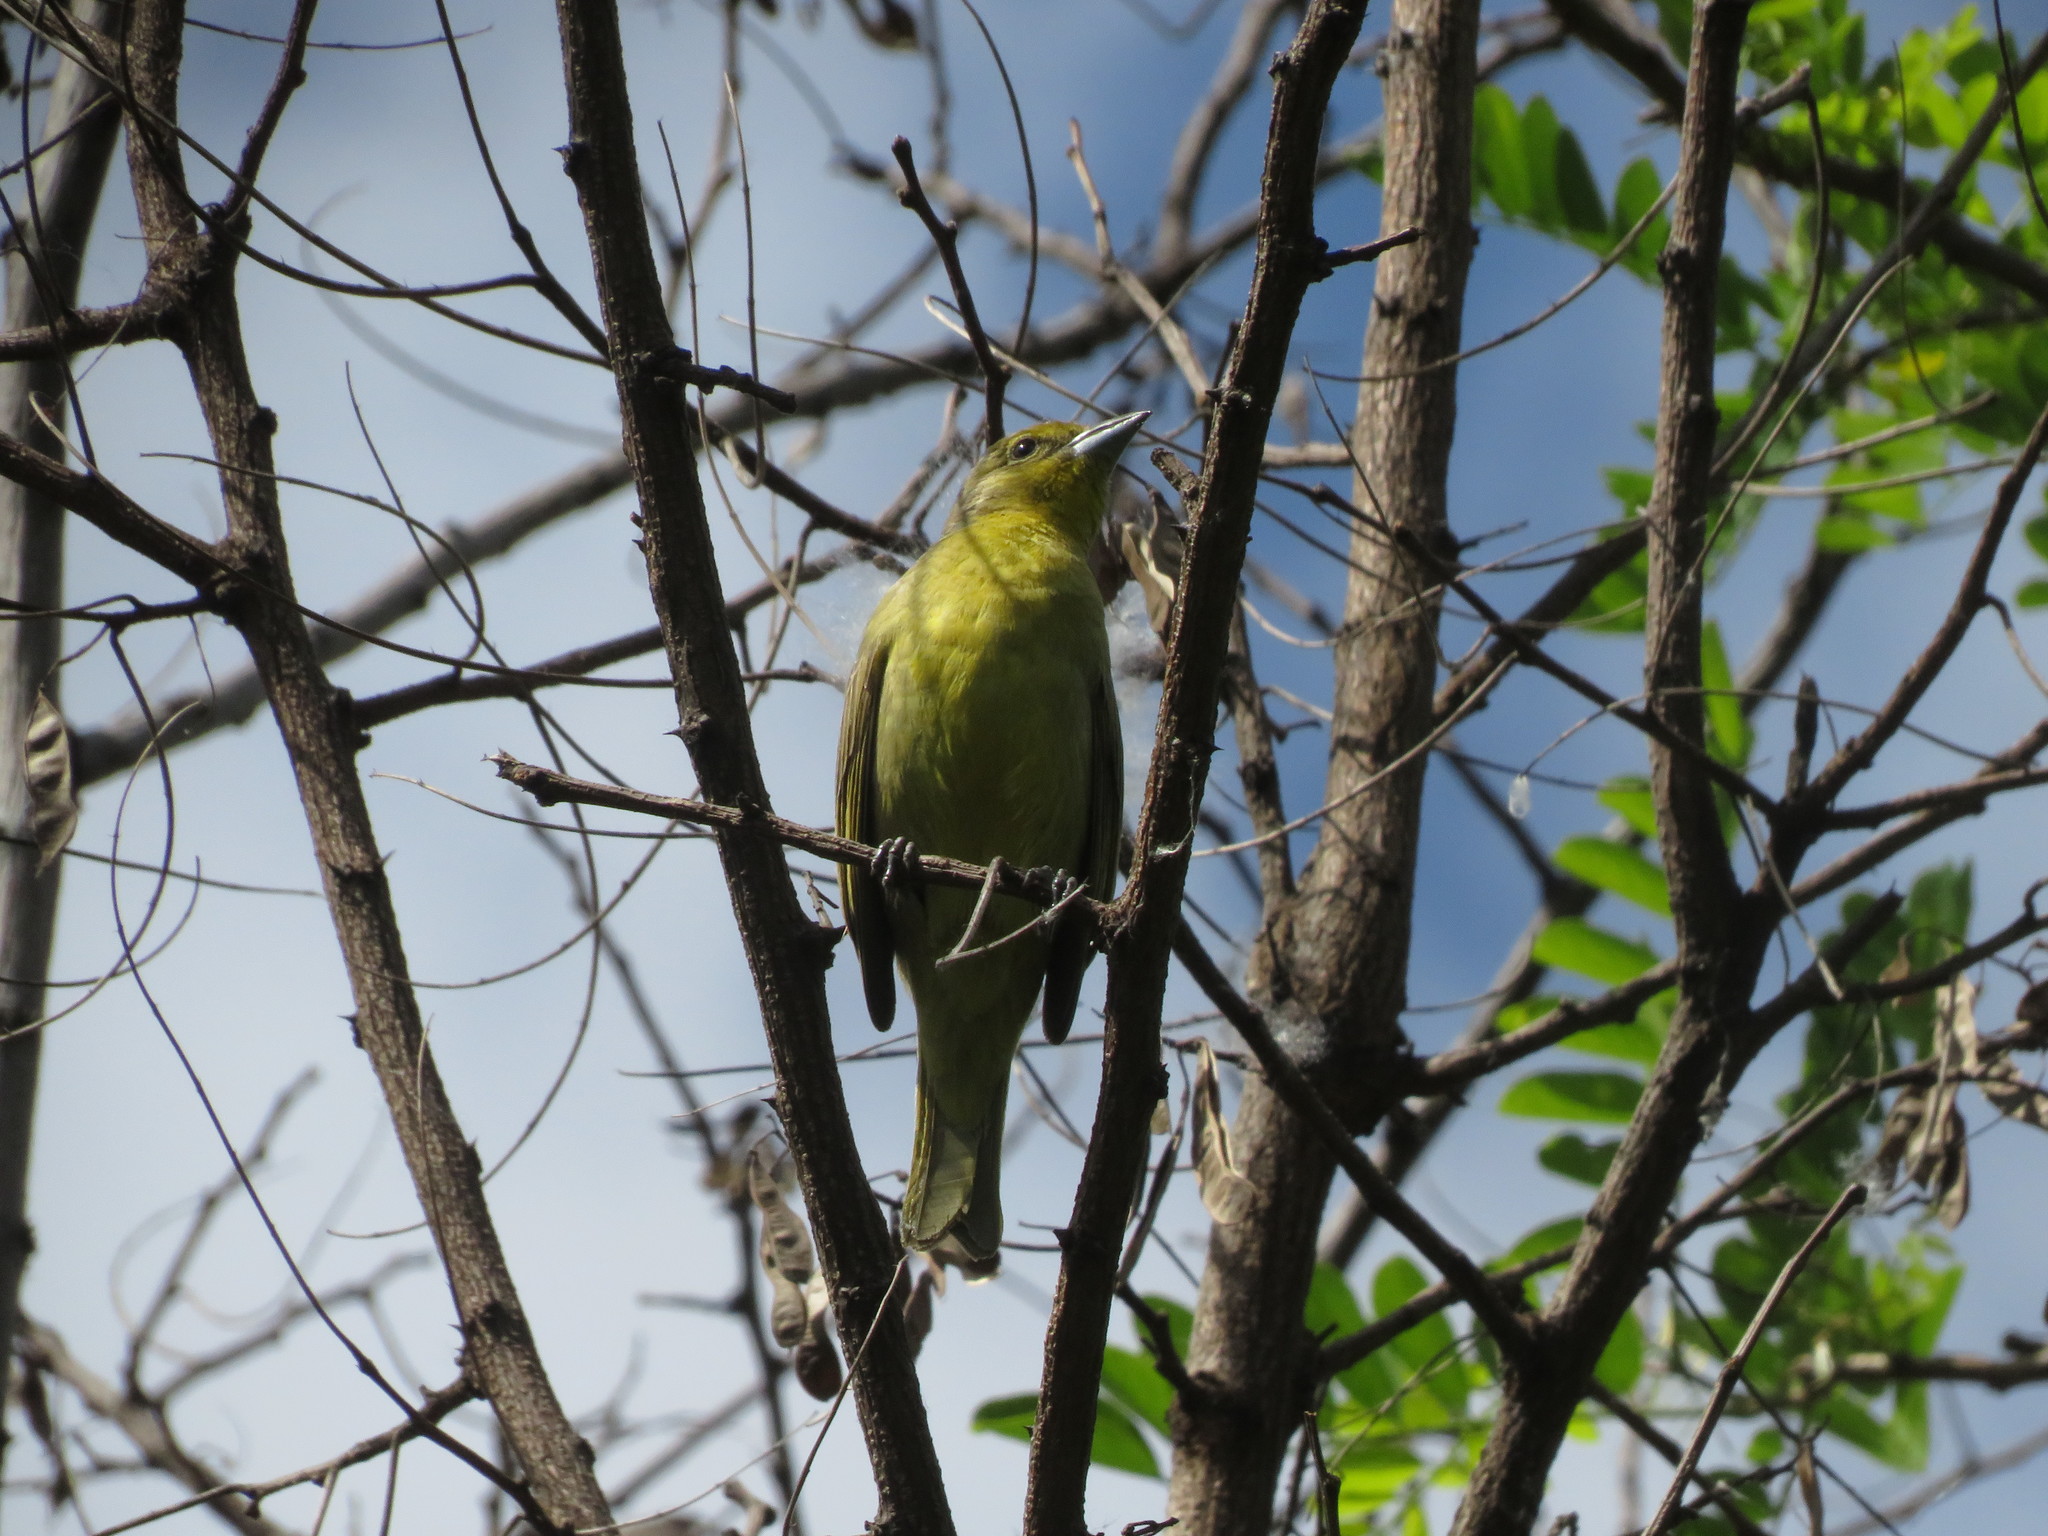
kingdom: Animalia
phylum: Chordata
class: Aves
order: Passeriformes
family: Cardinalidae
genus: Piranga
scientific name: Piranga flava
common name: Red tanager
